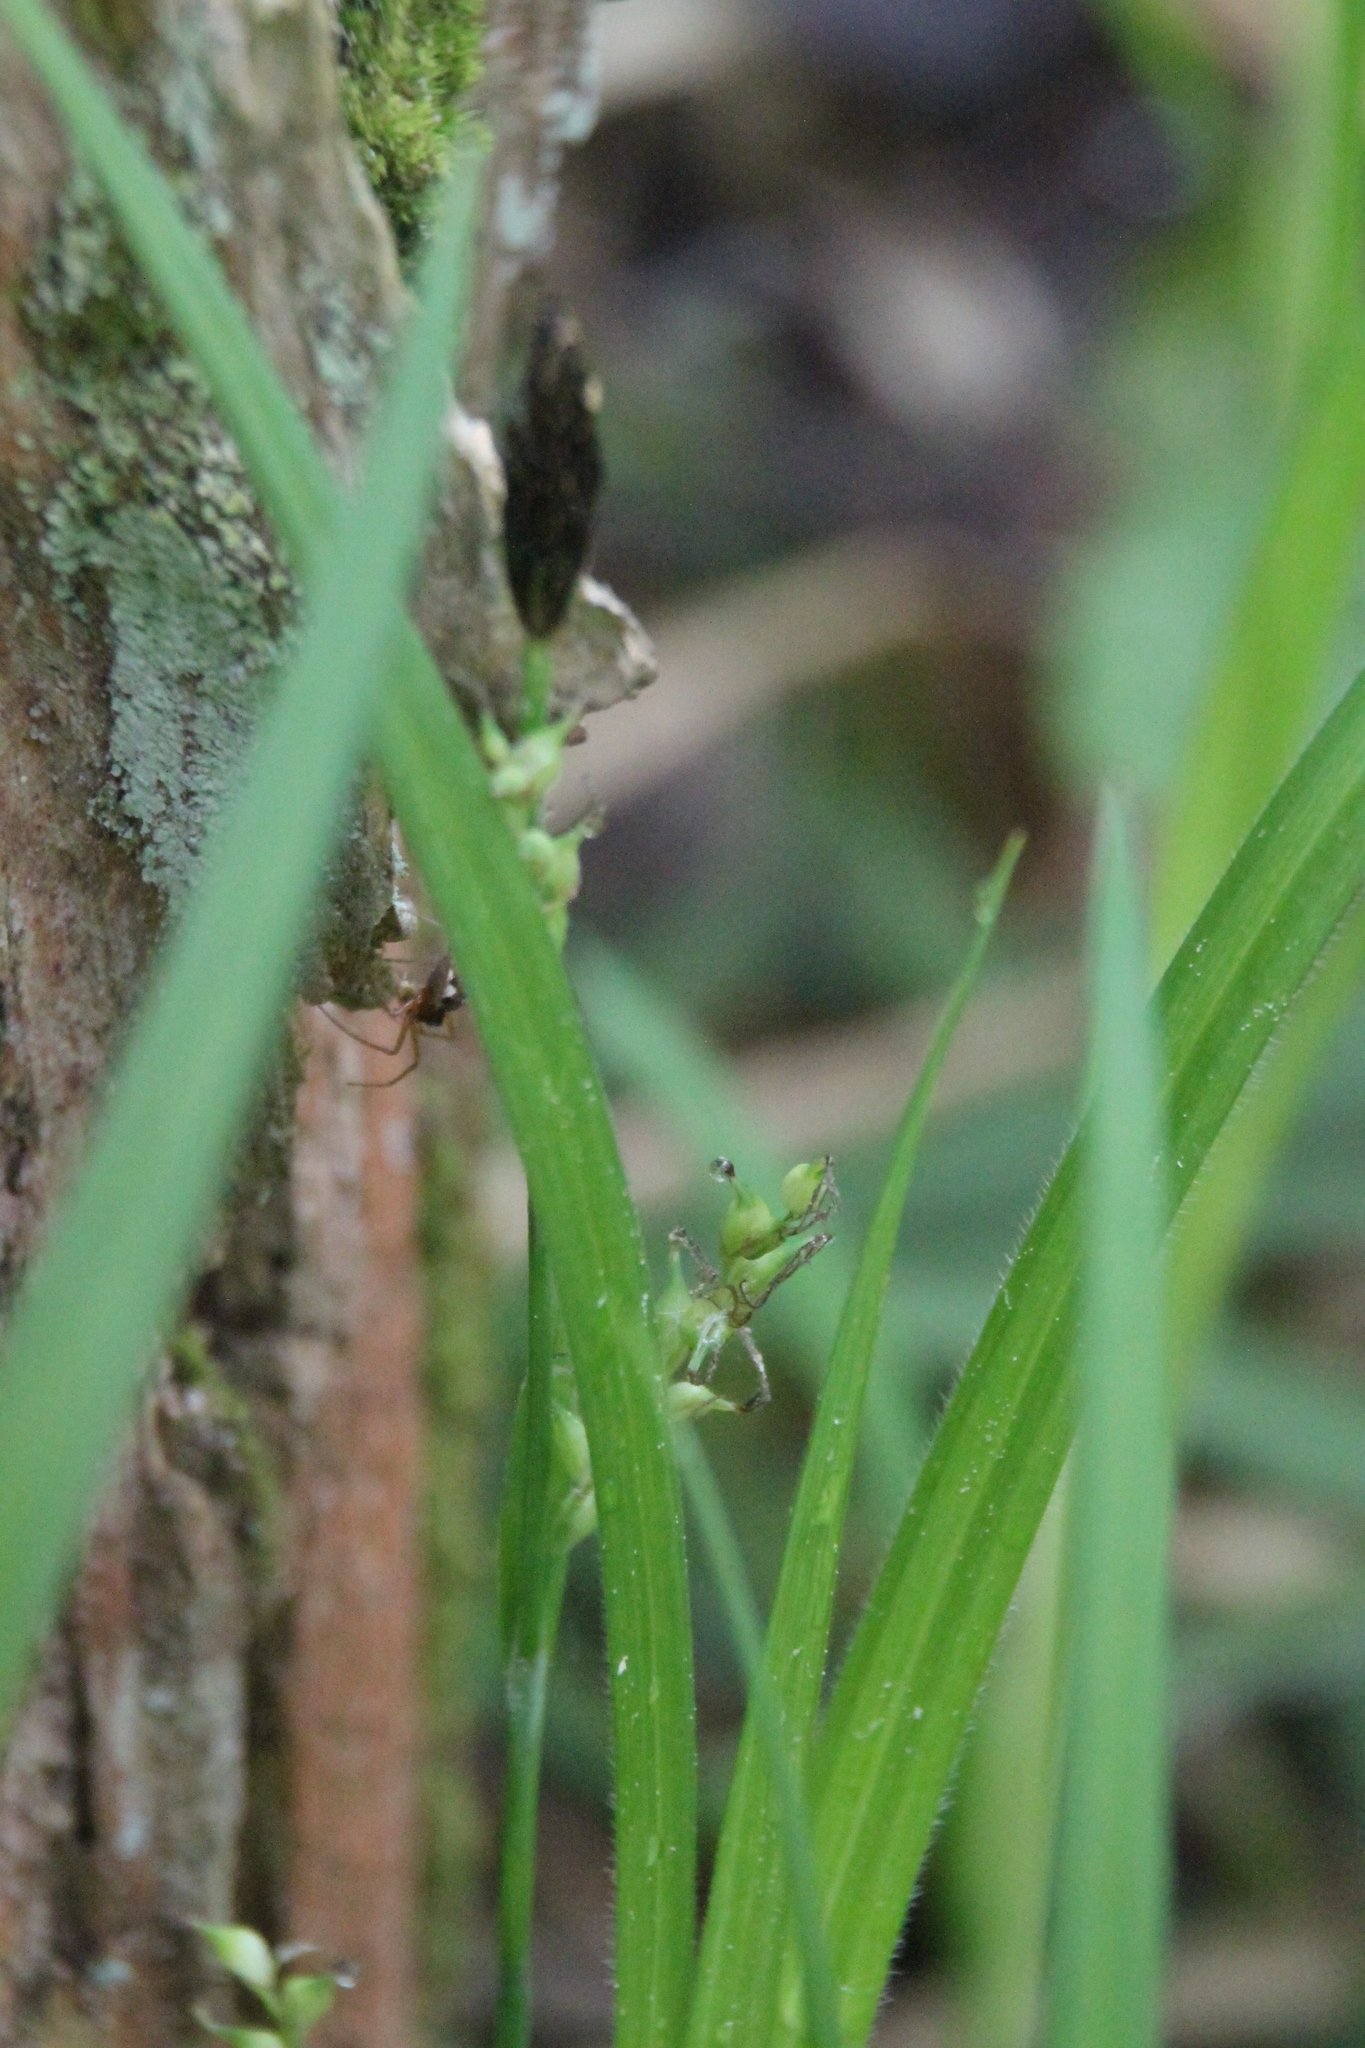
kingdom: Plantae
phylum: Tracheophyta
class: Liliopsida
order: Poales
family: Cyperaceae
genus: Carex
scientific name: Carex pilosa
